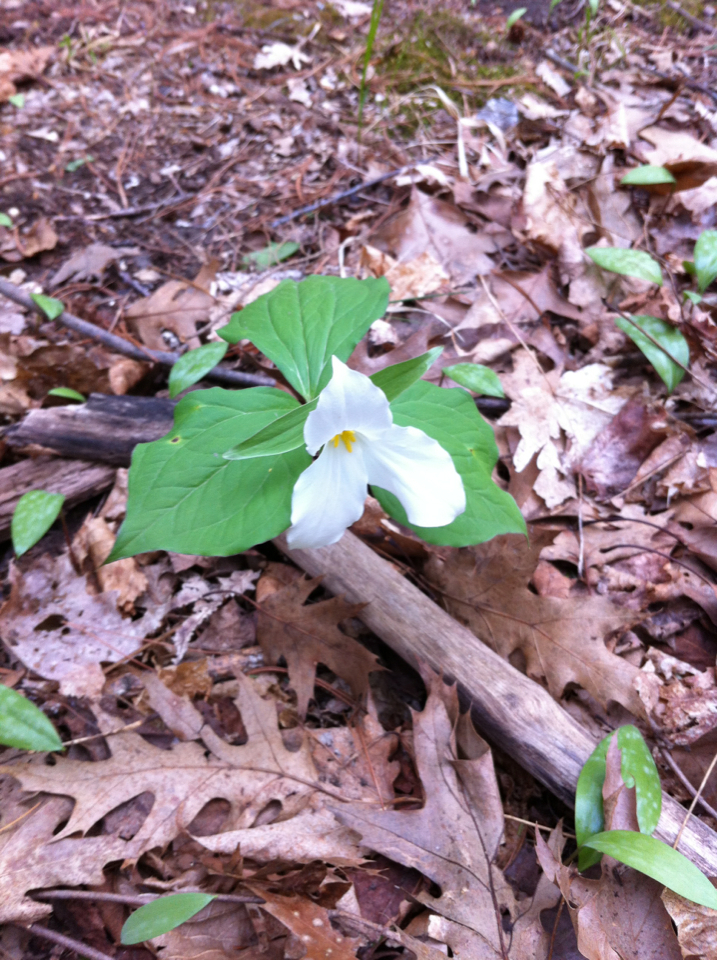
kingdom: Plantae
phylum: Tracheophyta
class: Liliopsida
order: Liliales
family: Melanthiaceae
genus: Trillium
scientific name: Trillium grandiflorum
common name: Great white trillium
